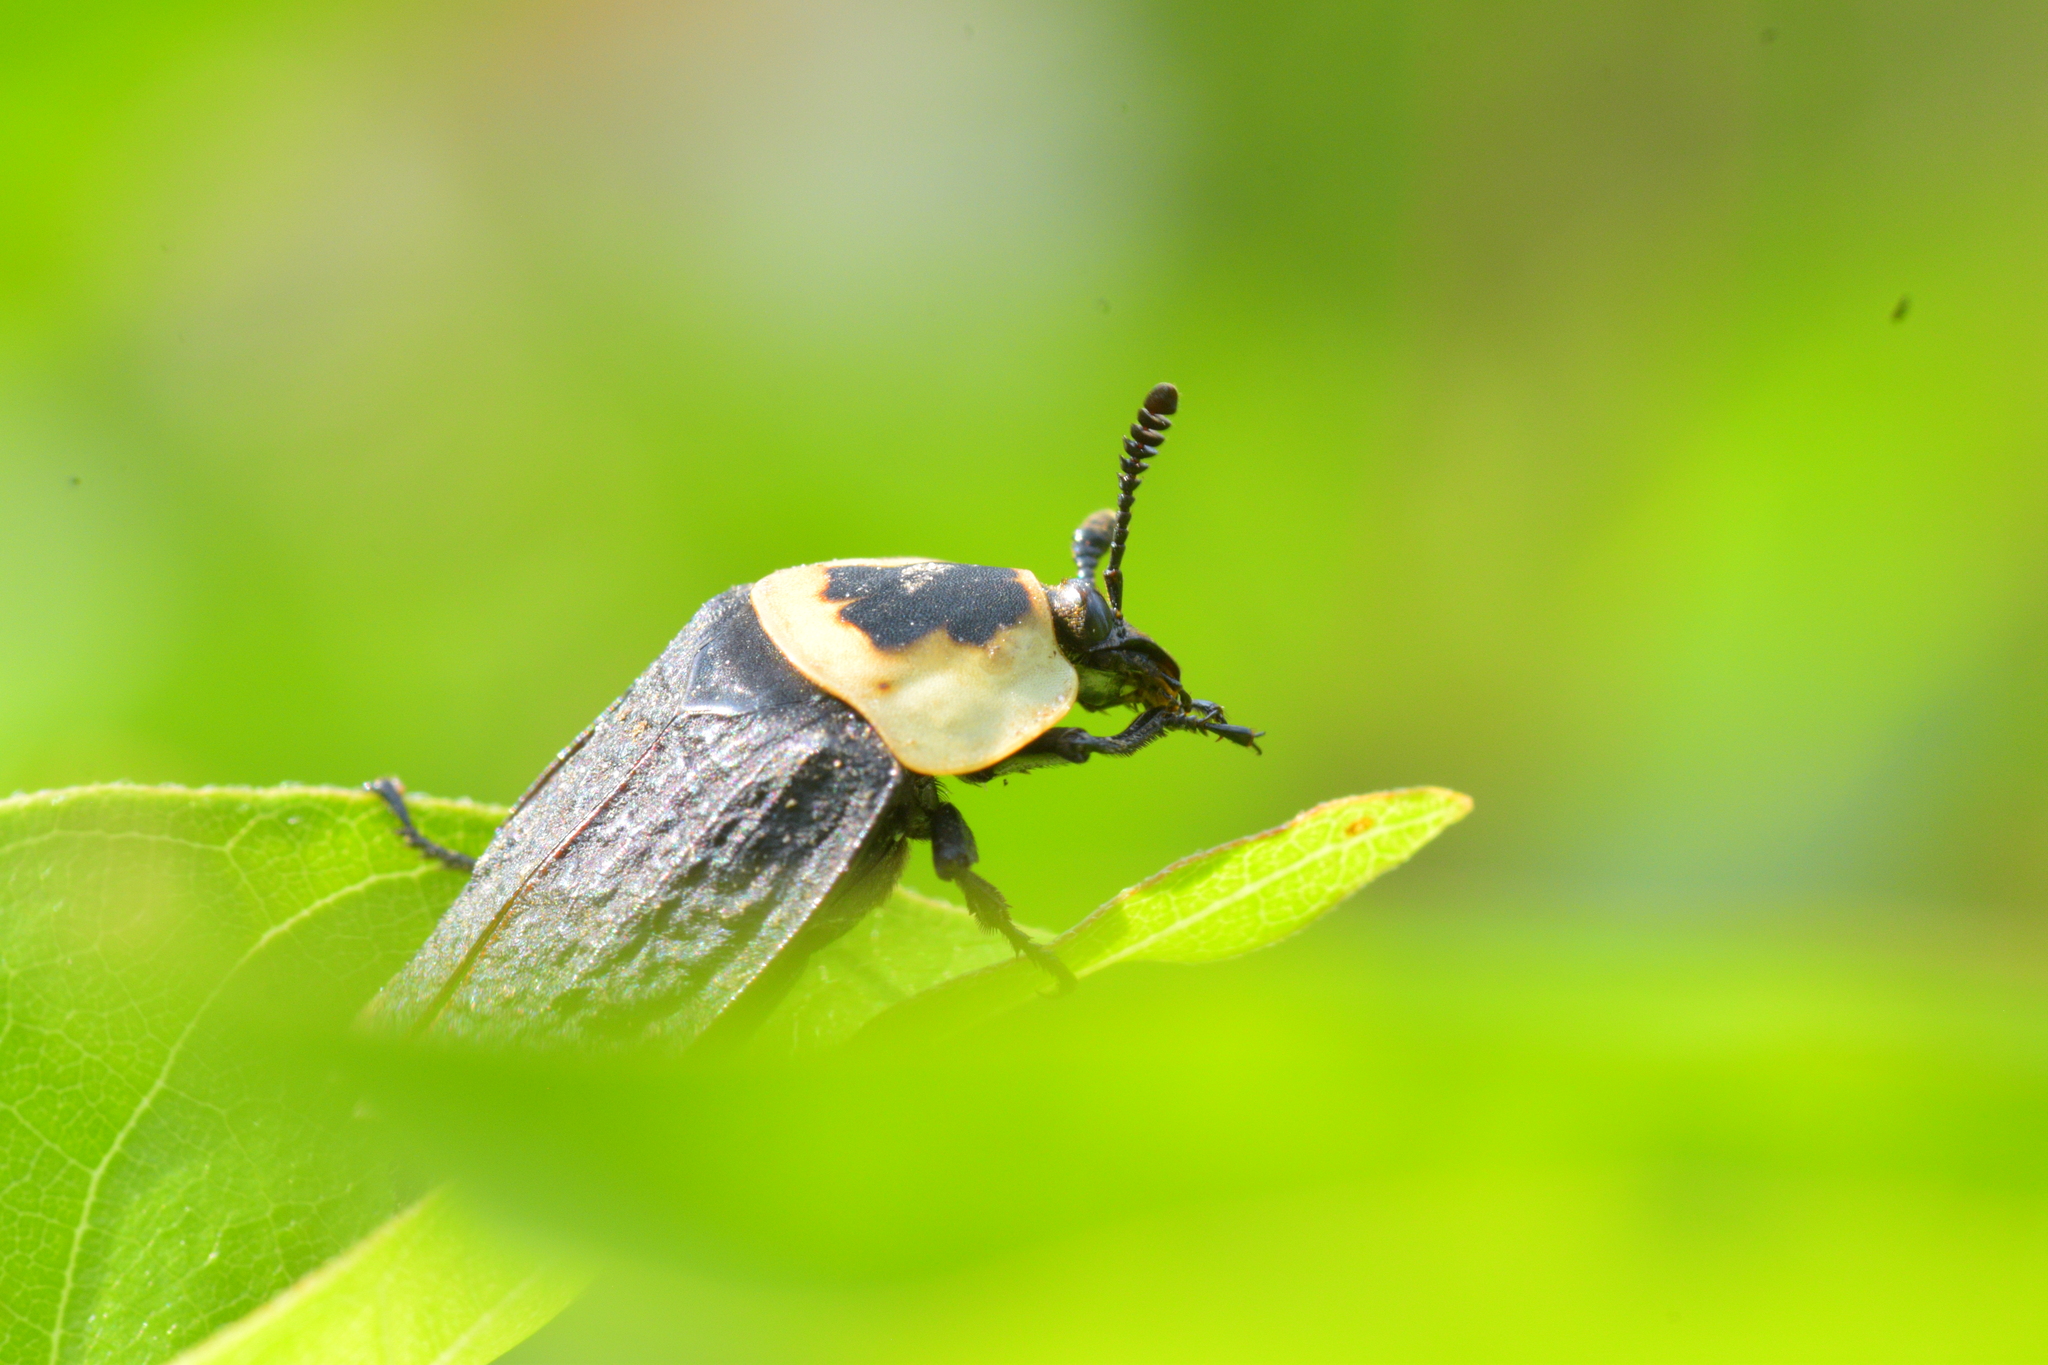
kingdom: Animalia
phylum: Arthropoda
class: Insecta
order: Coleoptera
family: Staphylinidae
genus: Necrophila
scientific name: Necrophila americana
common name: American carrion beetle
